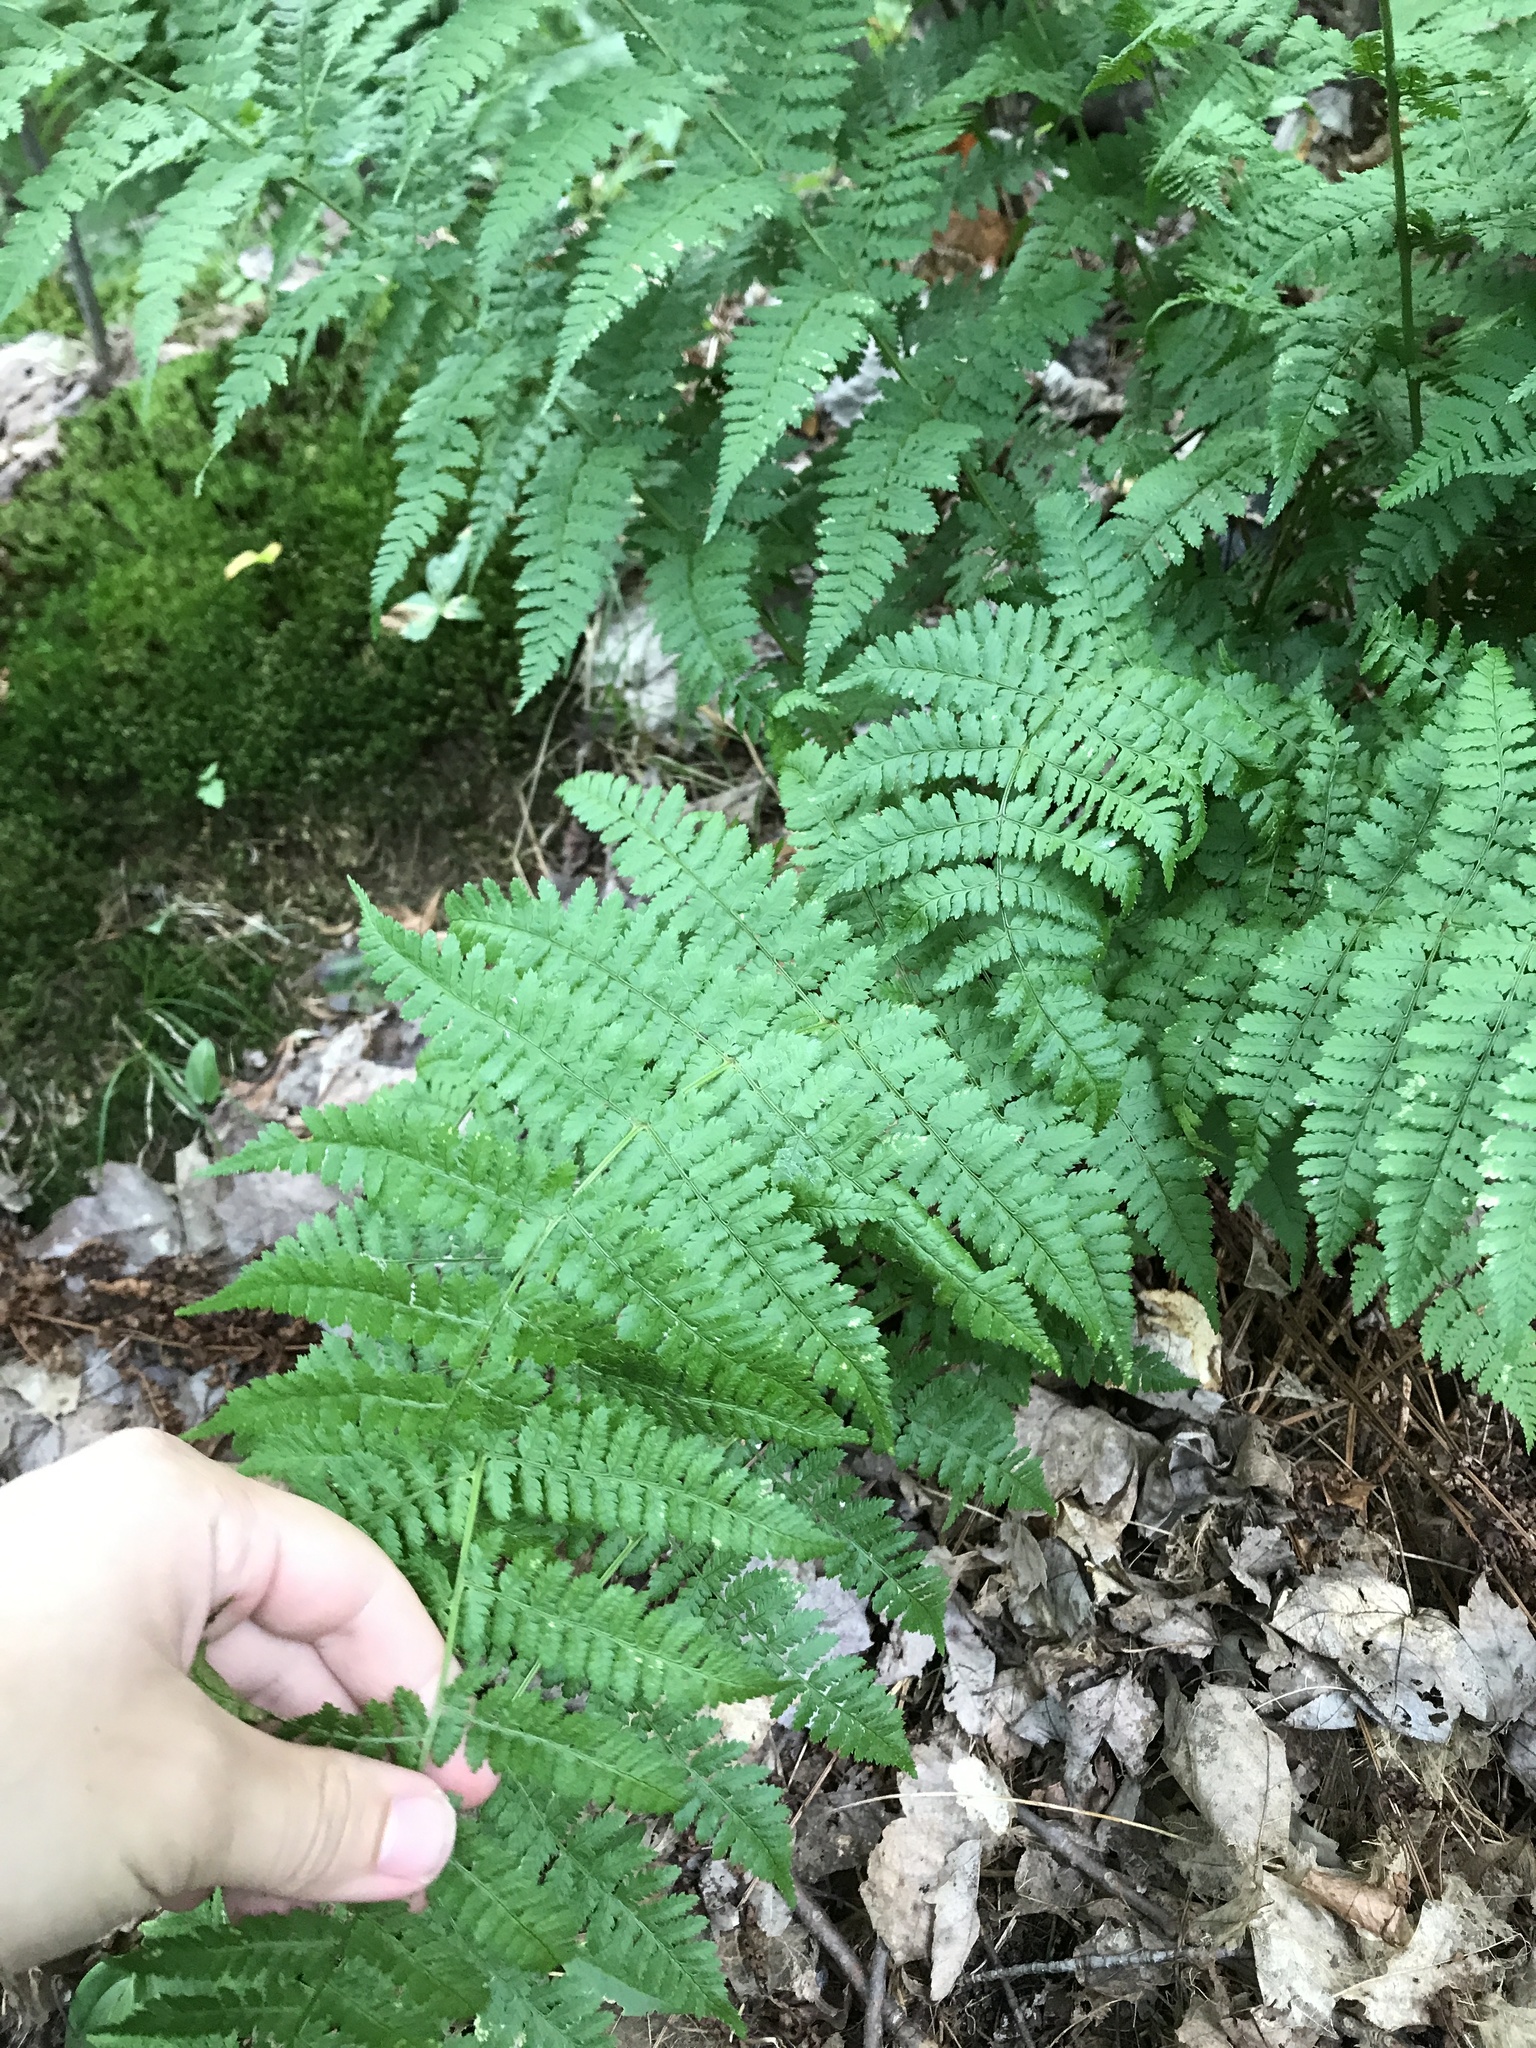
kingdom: Plantae
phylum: Tracheophyta
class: Polypodiopsida
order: Polypodiales
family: Dryopteridaceae
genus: Dryopteris
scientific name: Dryopteris intermedia
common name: Evergreen wood fern
